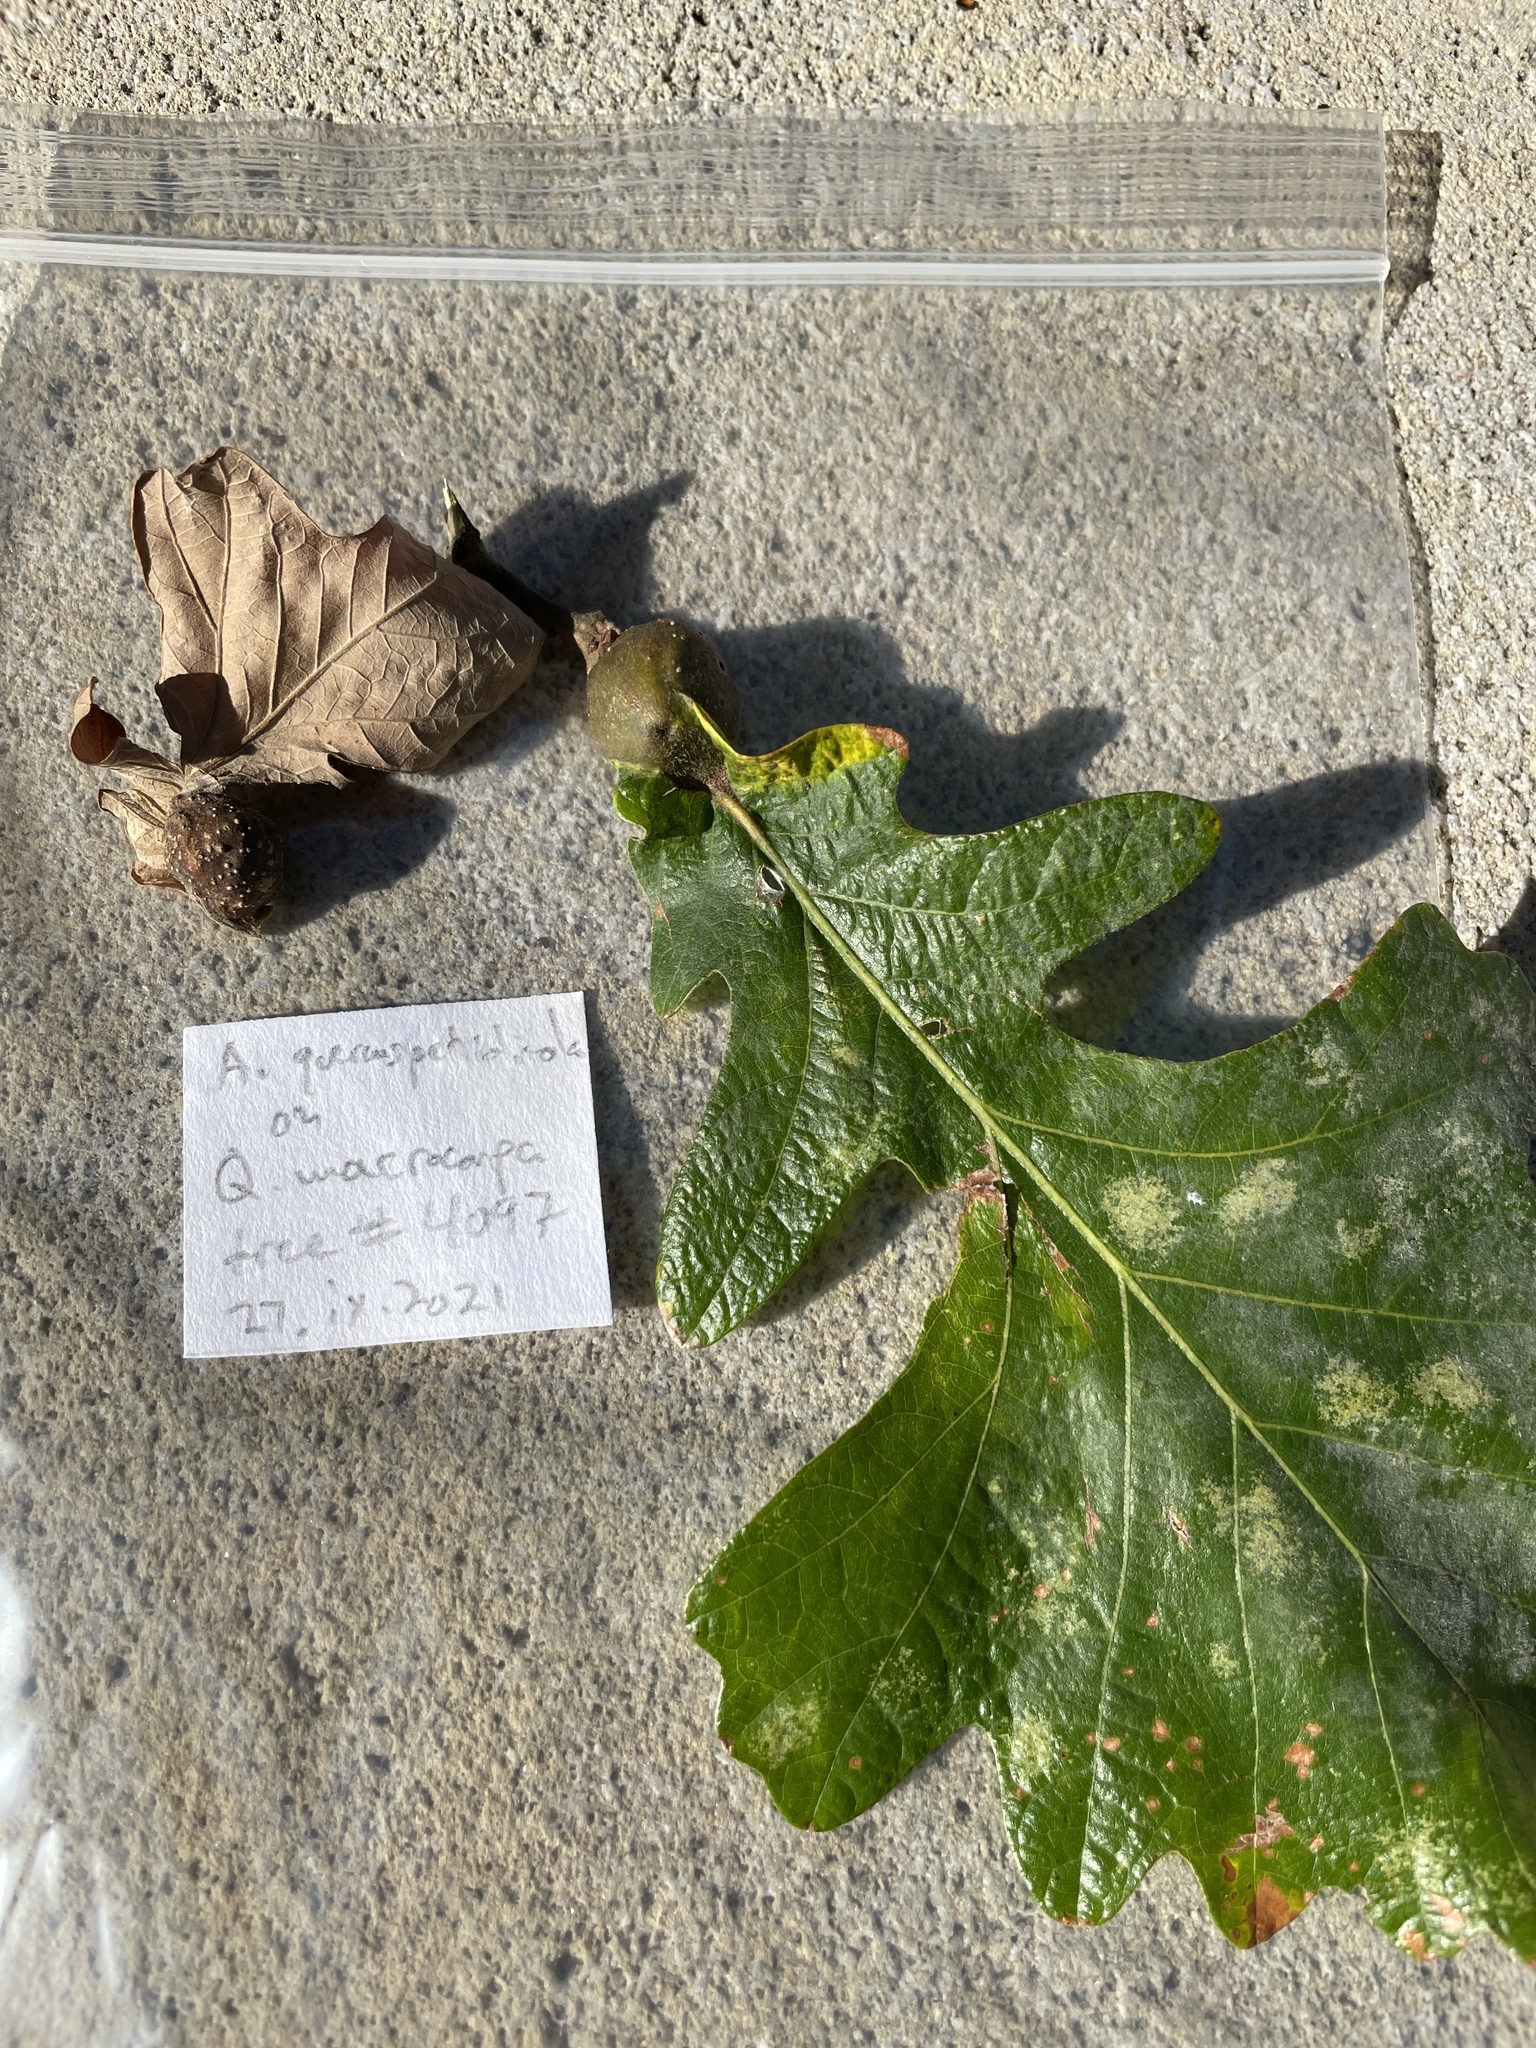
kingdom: Animalia
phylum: Arthropoda
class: Insecta
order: Hymenoptera
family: Cynipidae
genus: Andricus
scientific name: Andricus
